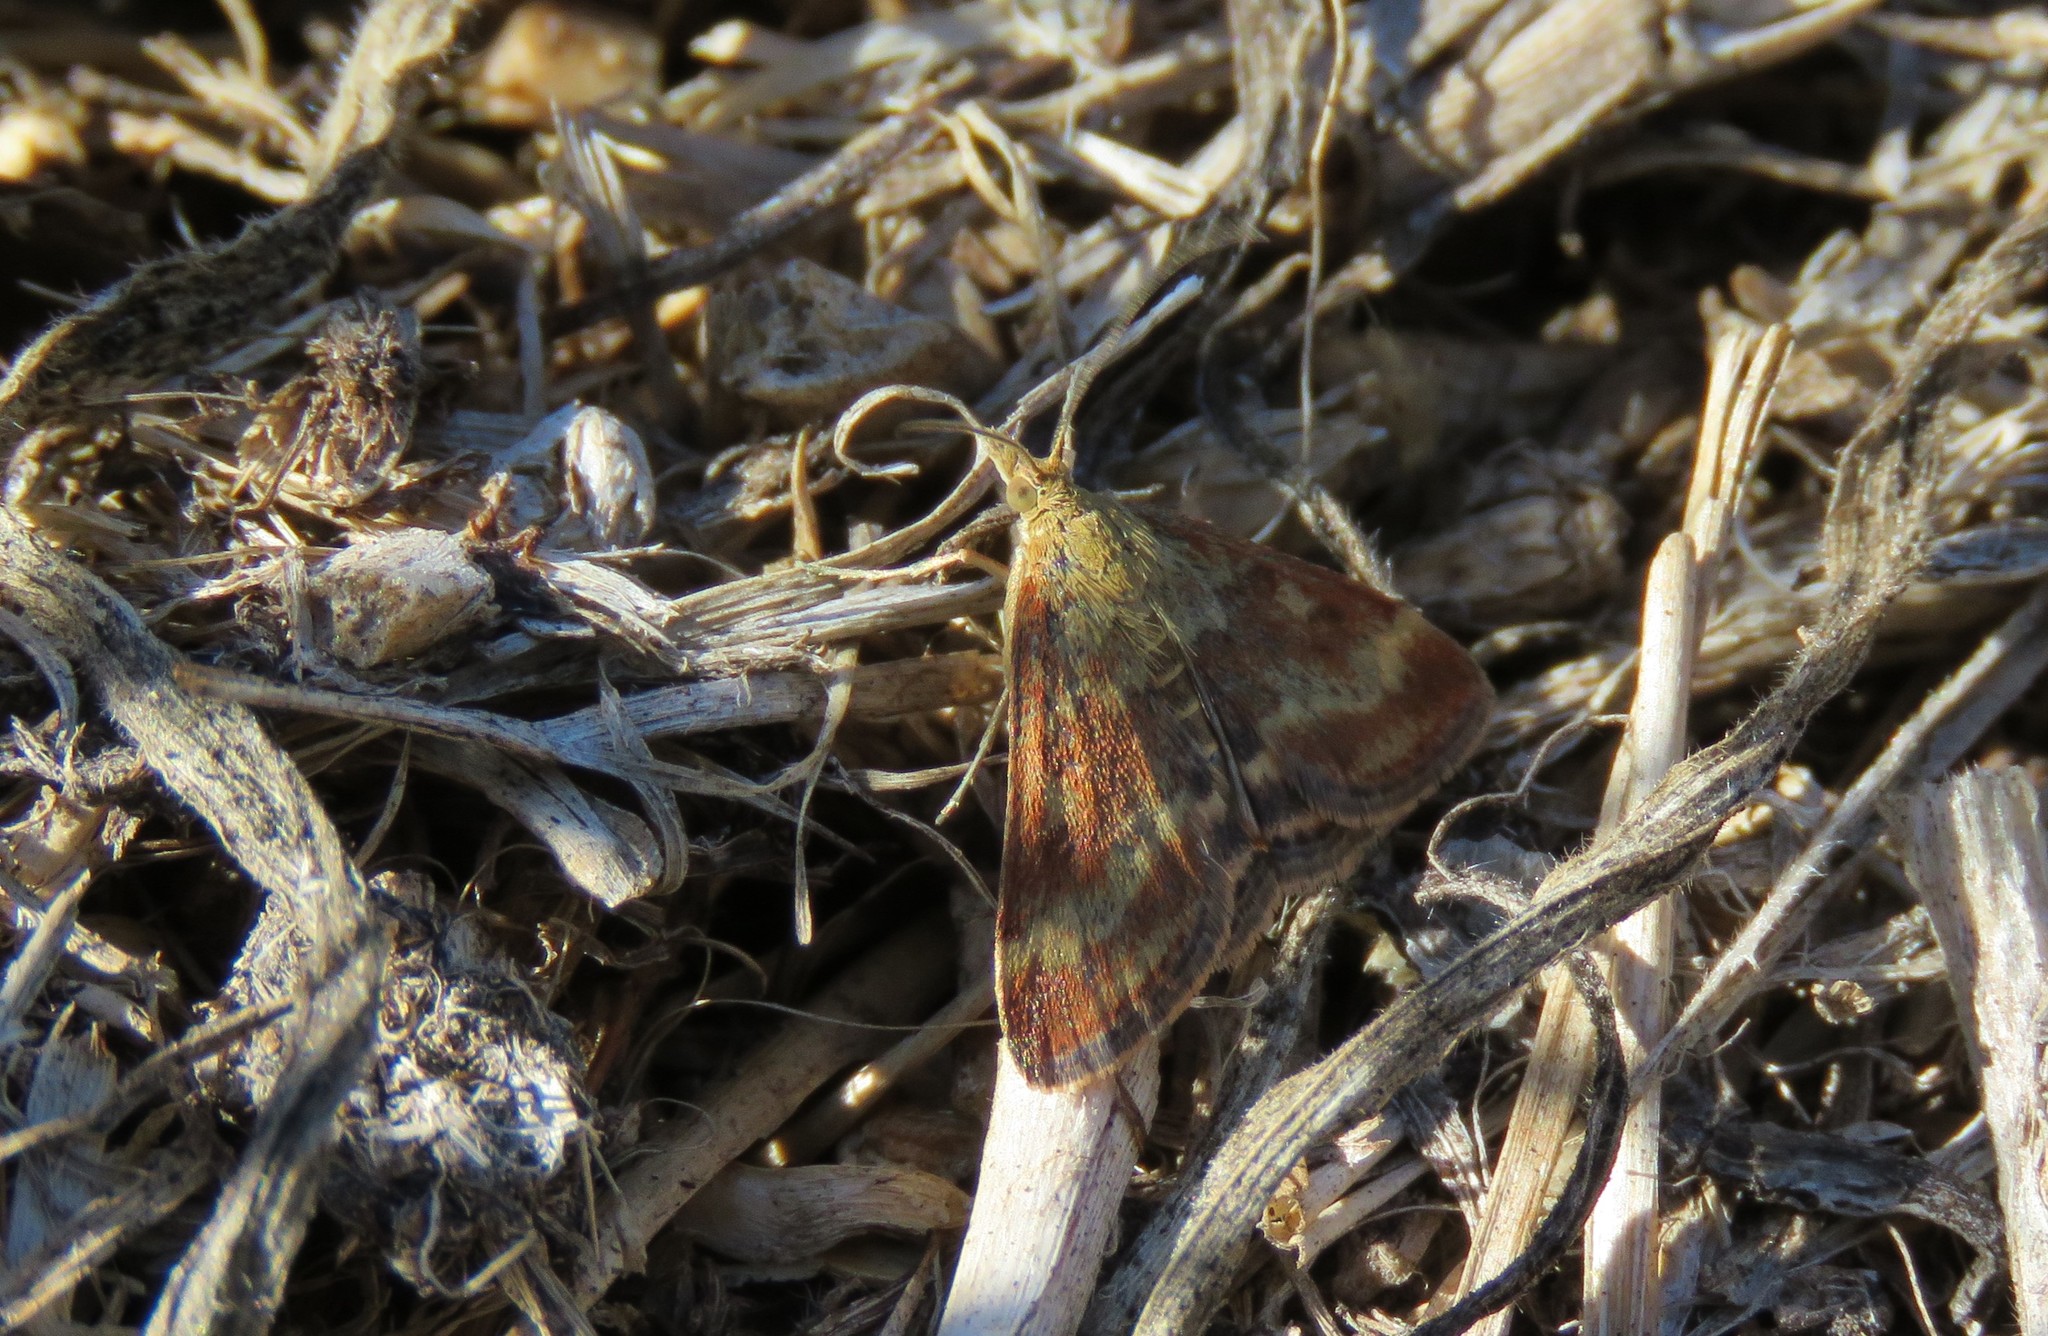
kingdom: Animalia
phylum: Arthropoda
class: Insecta
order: Lepidoptera
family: Crambidae
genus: Pyrausta
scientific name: Pyrausta despicata
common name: Straw-barred pearl
